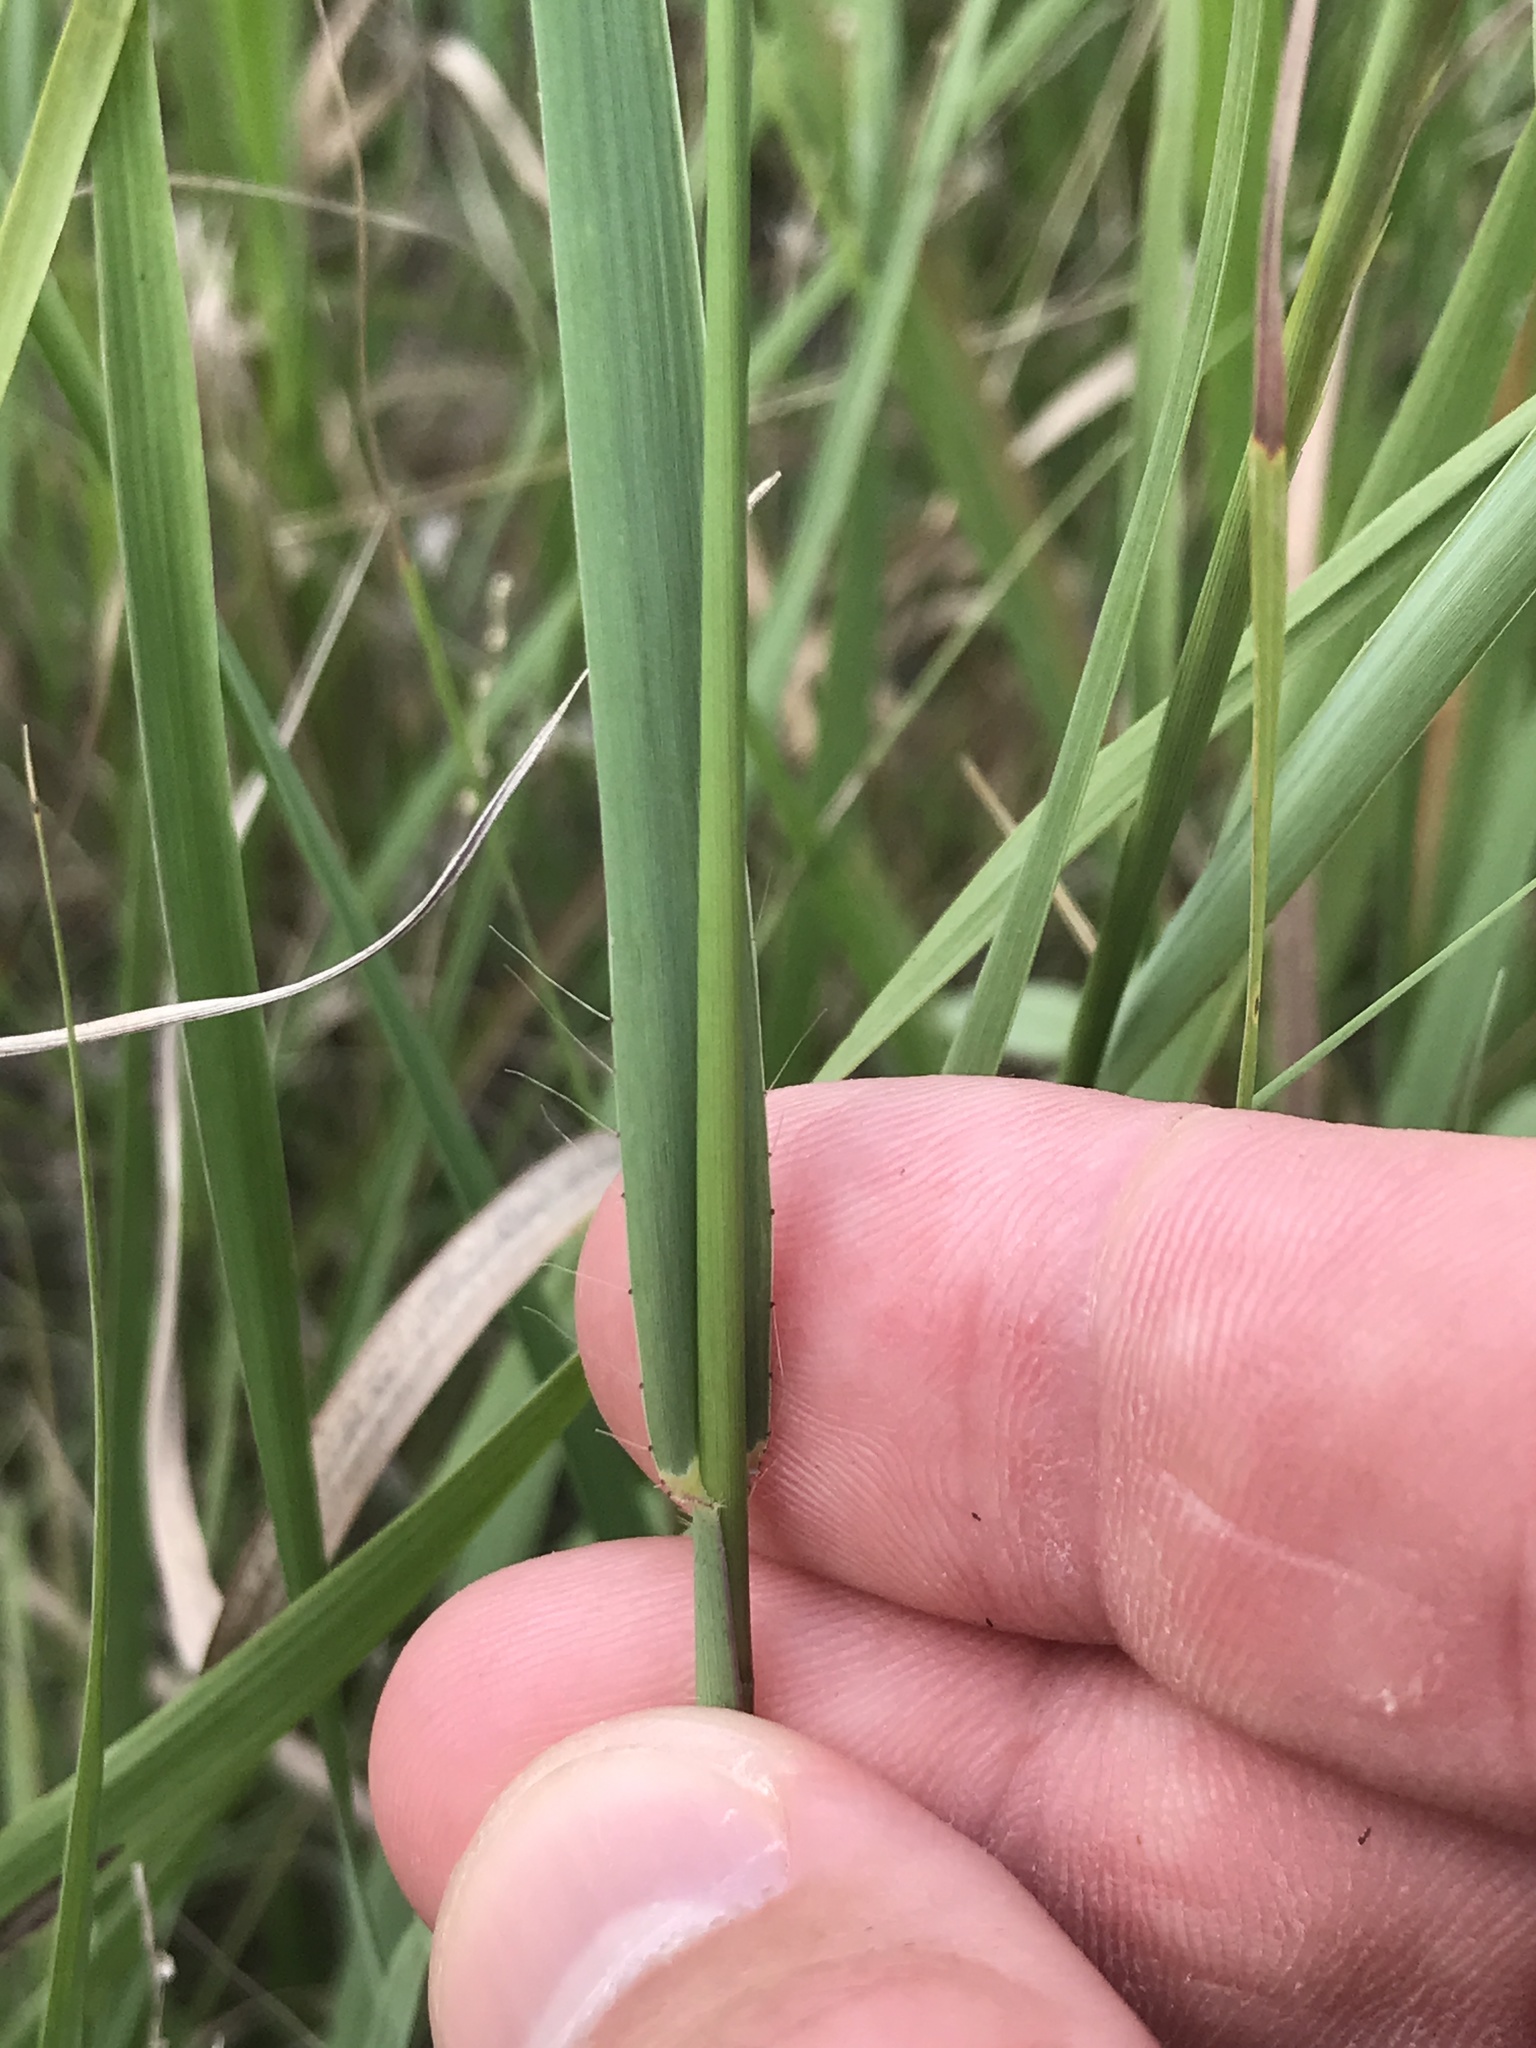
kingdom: Plantae
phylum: Tracheophyta
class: Liliopsida
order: Poales
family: Poaceae
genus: Bouteloua
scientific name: Bouteloua curtipendula
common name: Side-oats grama
